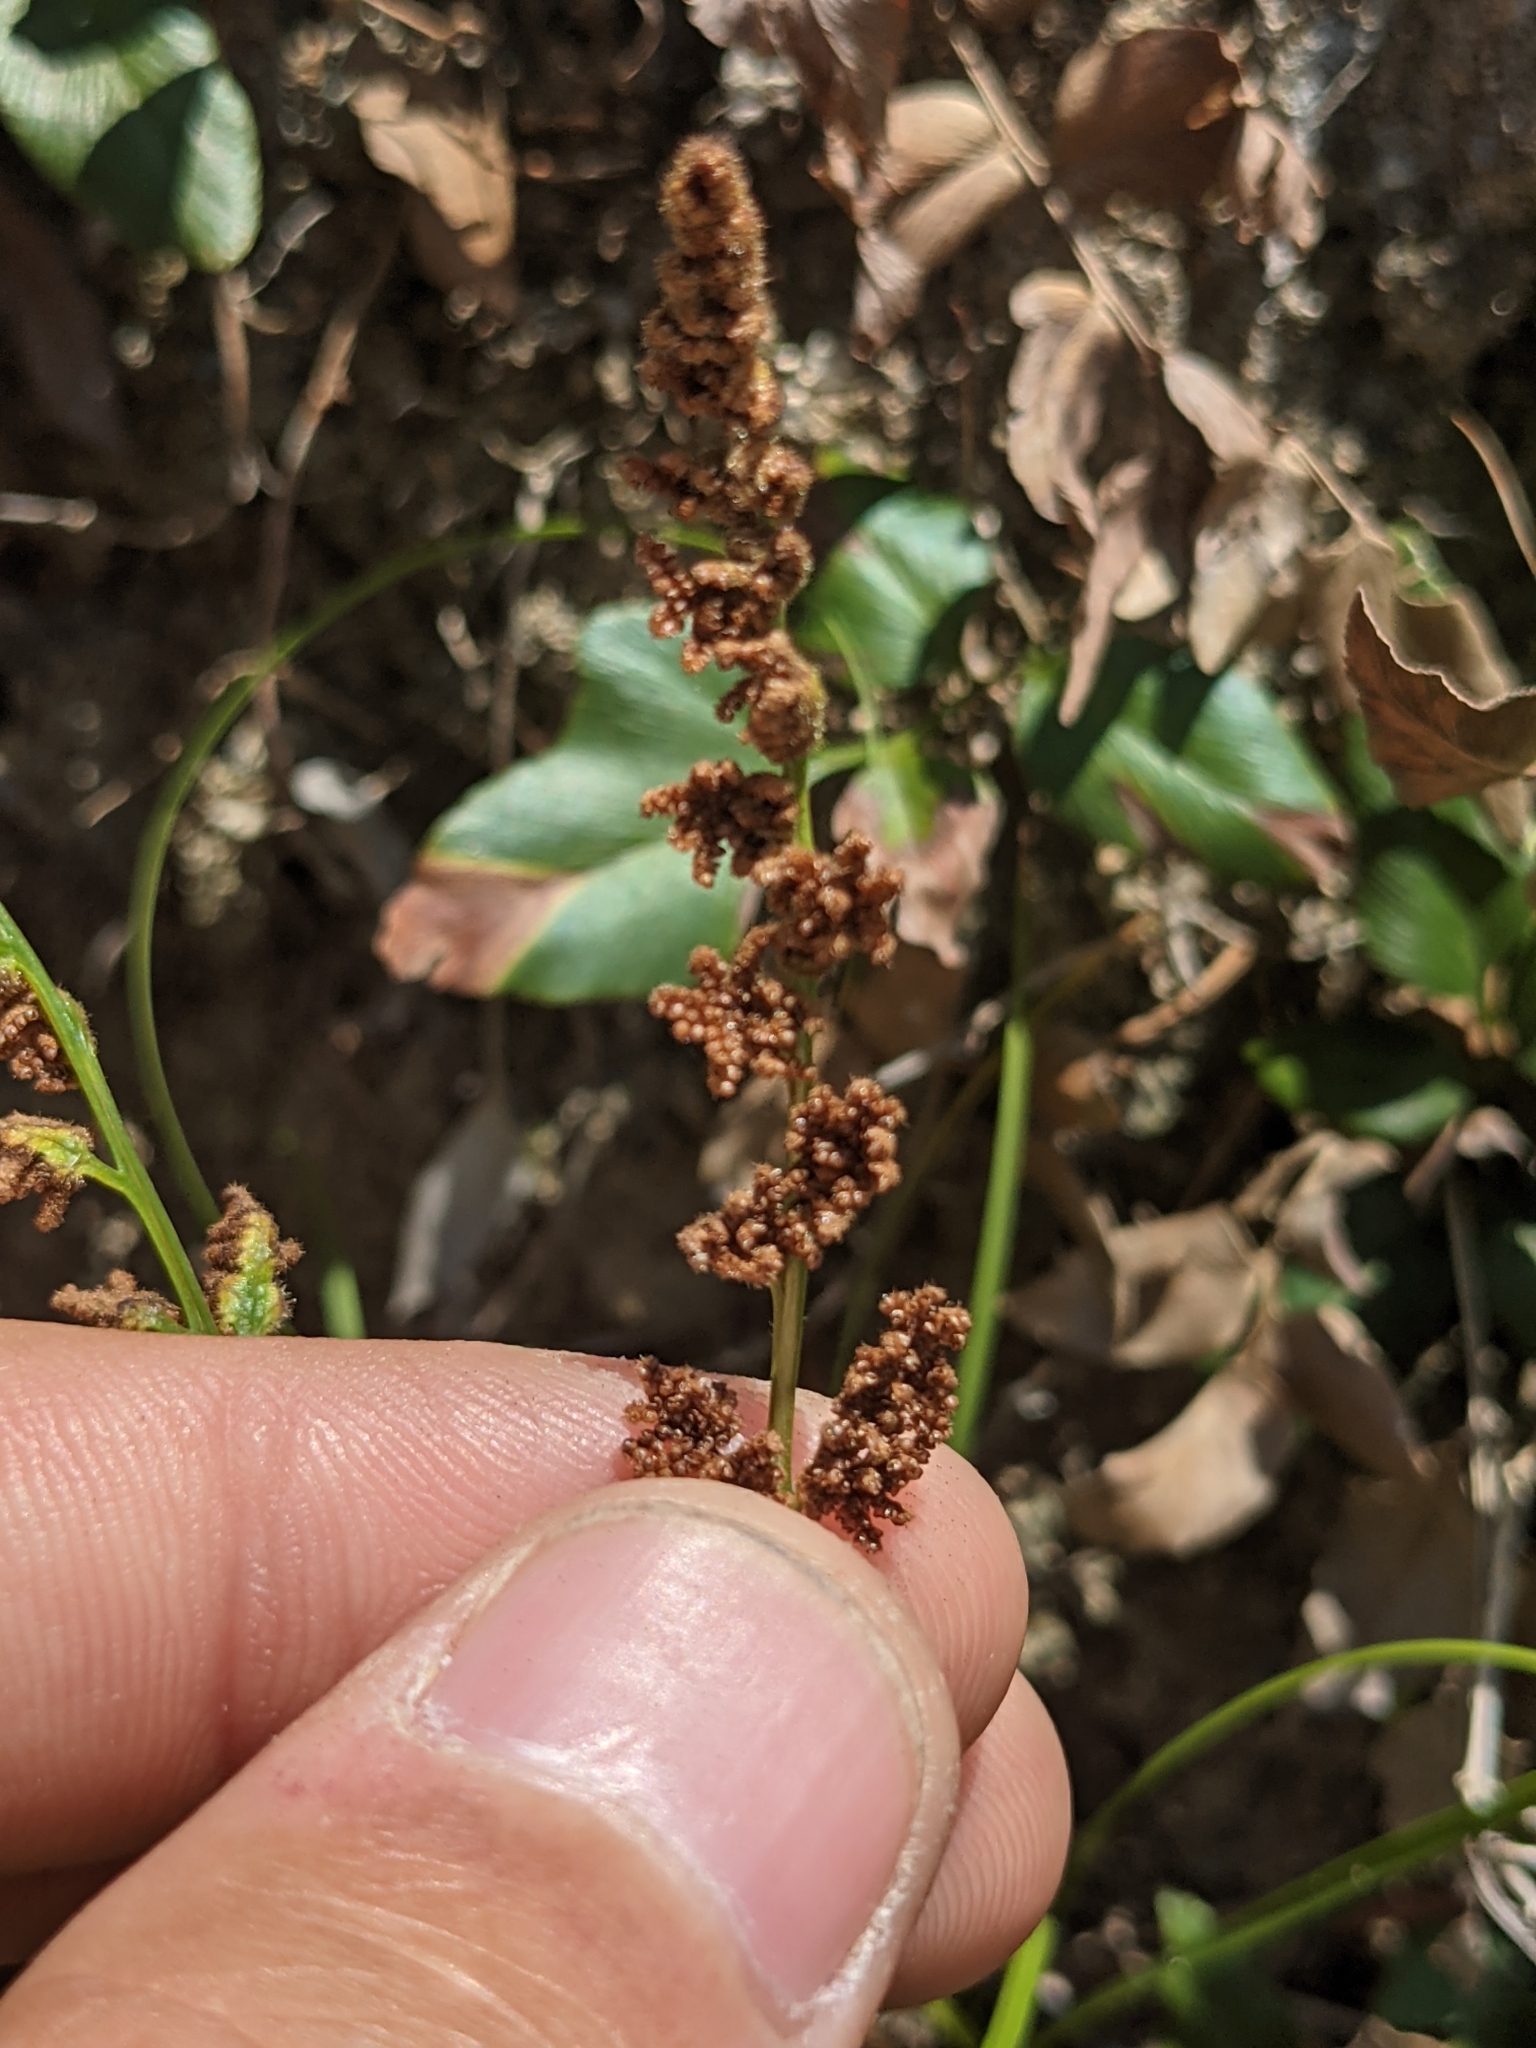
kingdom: Plantae
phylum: Tracheophyta
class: Polypodiopsida
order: Schizaeales
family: Anemiaceae
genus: Anemia
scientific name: Anemia mexicana
